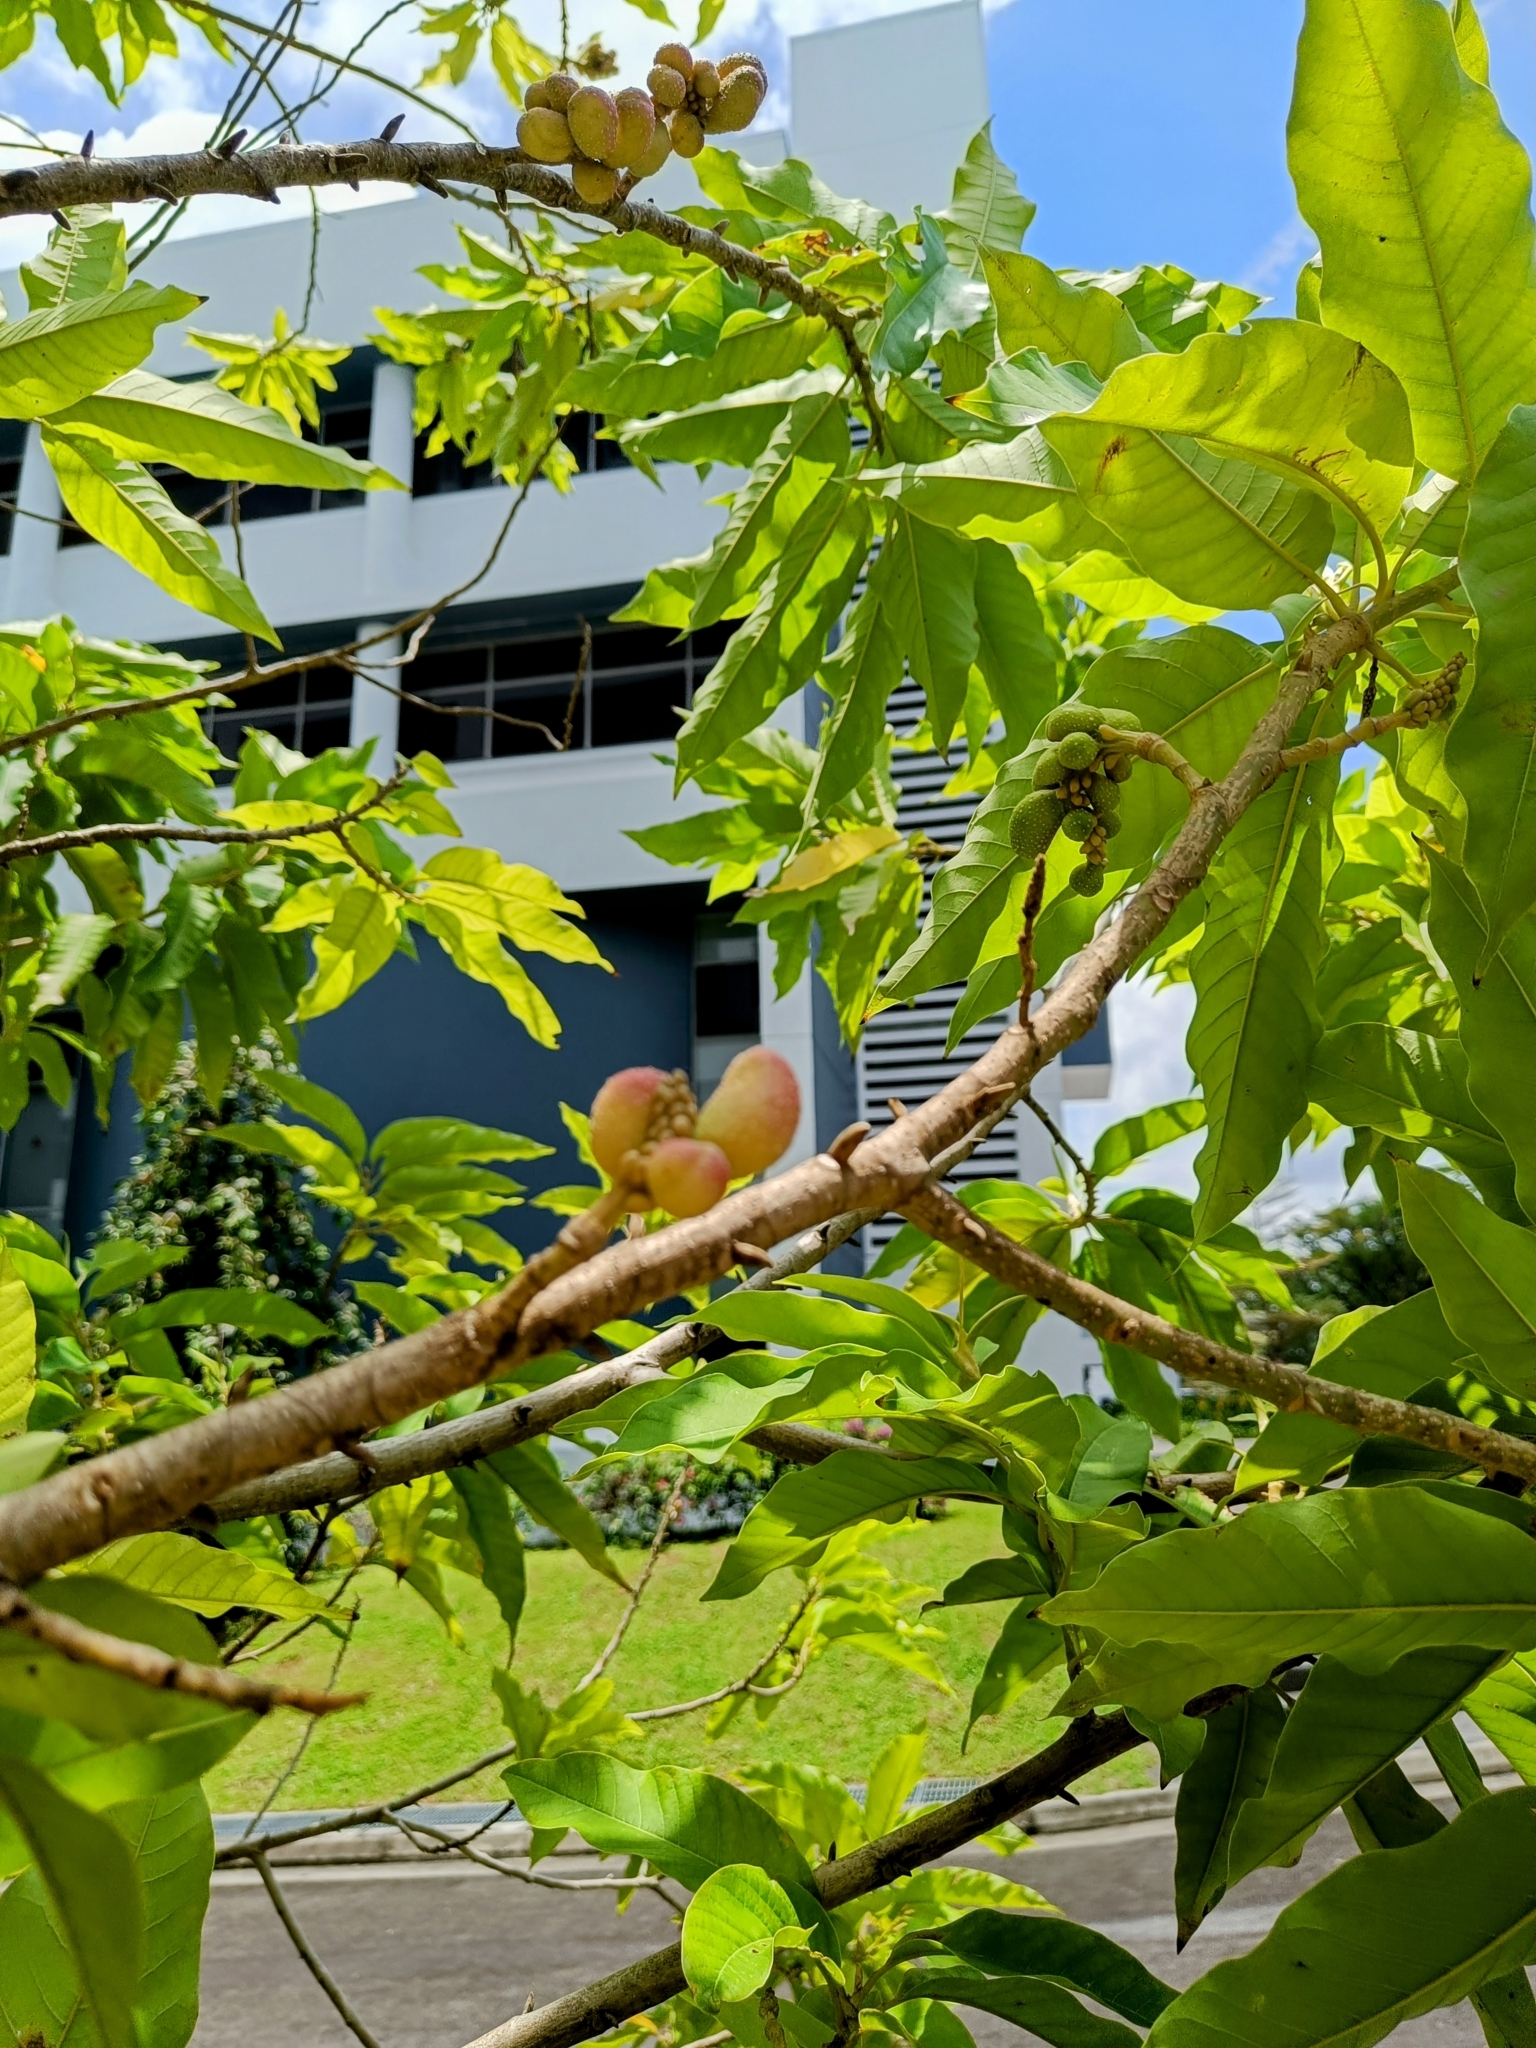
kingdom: Plantae
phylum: Tracheophyta
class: Magnoliopsida
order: Magnoliales
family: Magnoliaceae
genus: Magnolia
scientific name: Magnolia champaca
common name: Champak
